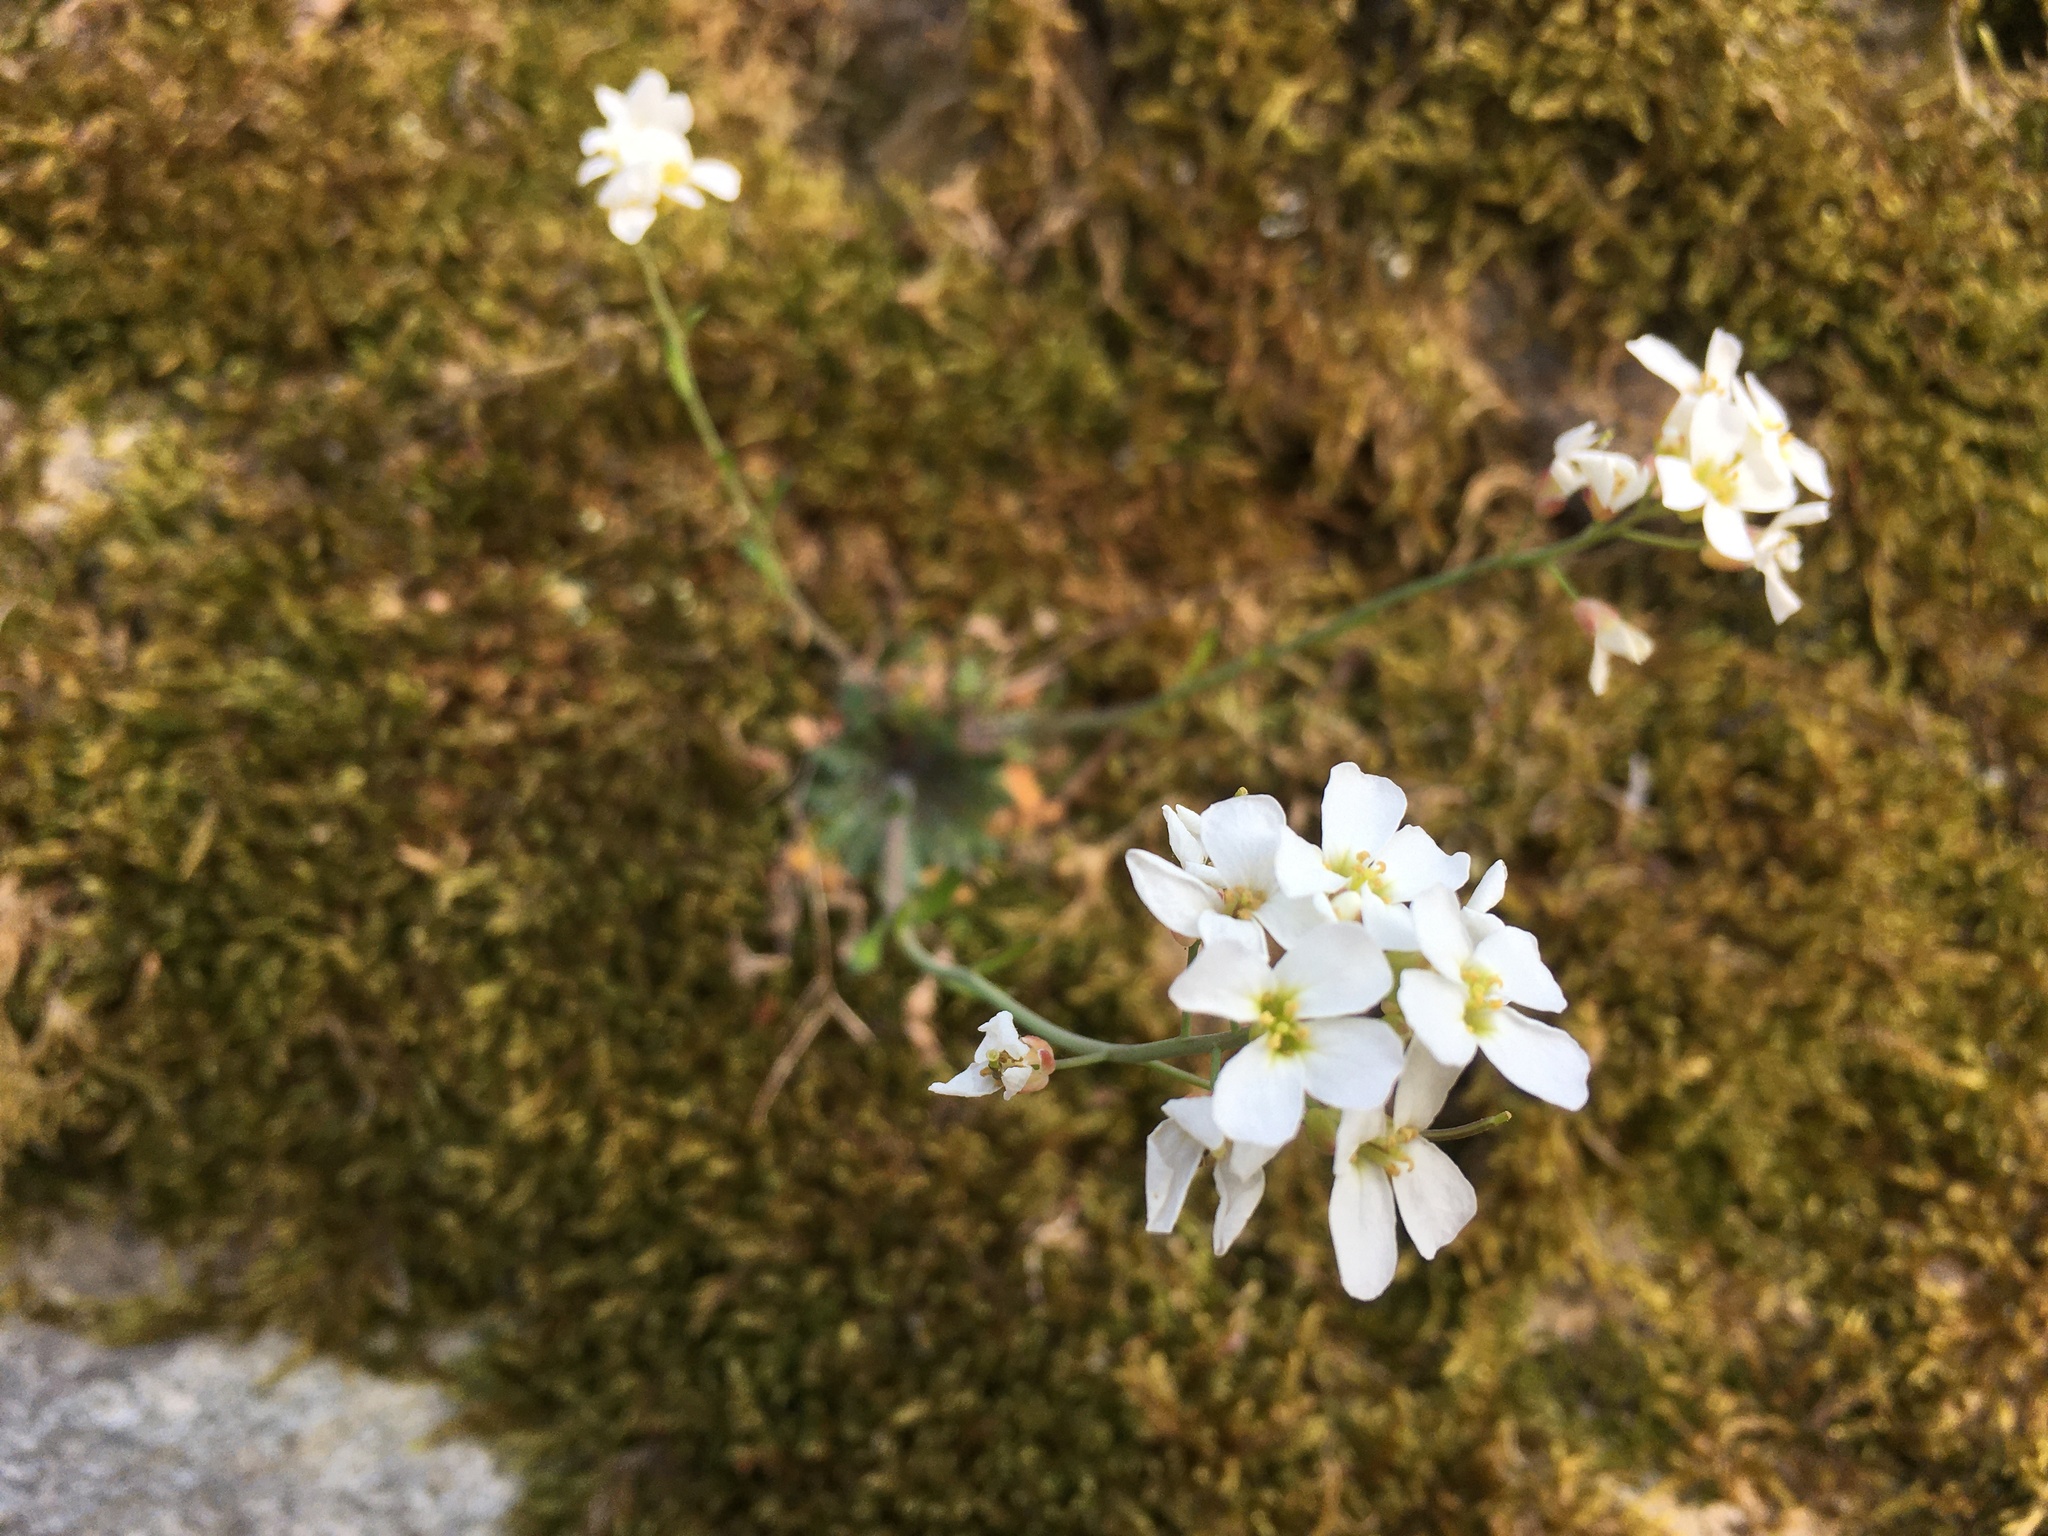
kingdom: Plantae
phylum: Tracheophyta
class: Magnoliopsida
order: Brassicales
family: Brassicaceae
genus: Arabidopsis
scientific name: Arabidopsis arenosa
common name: Sand rock-cress
